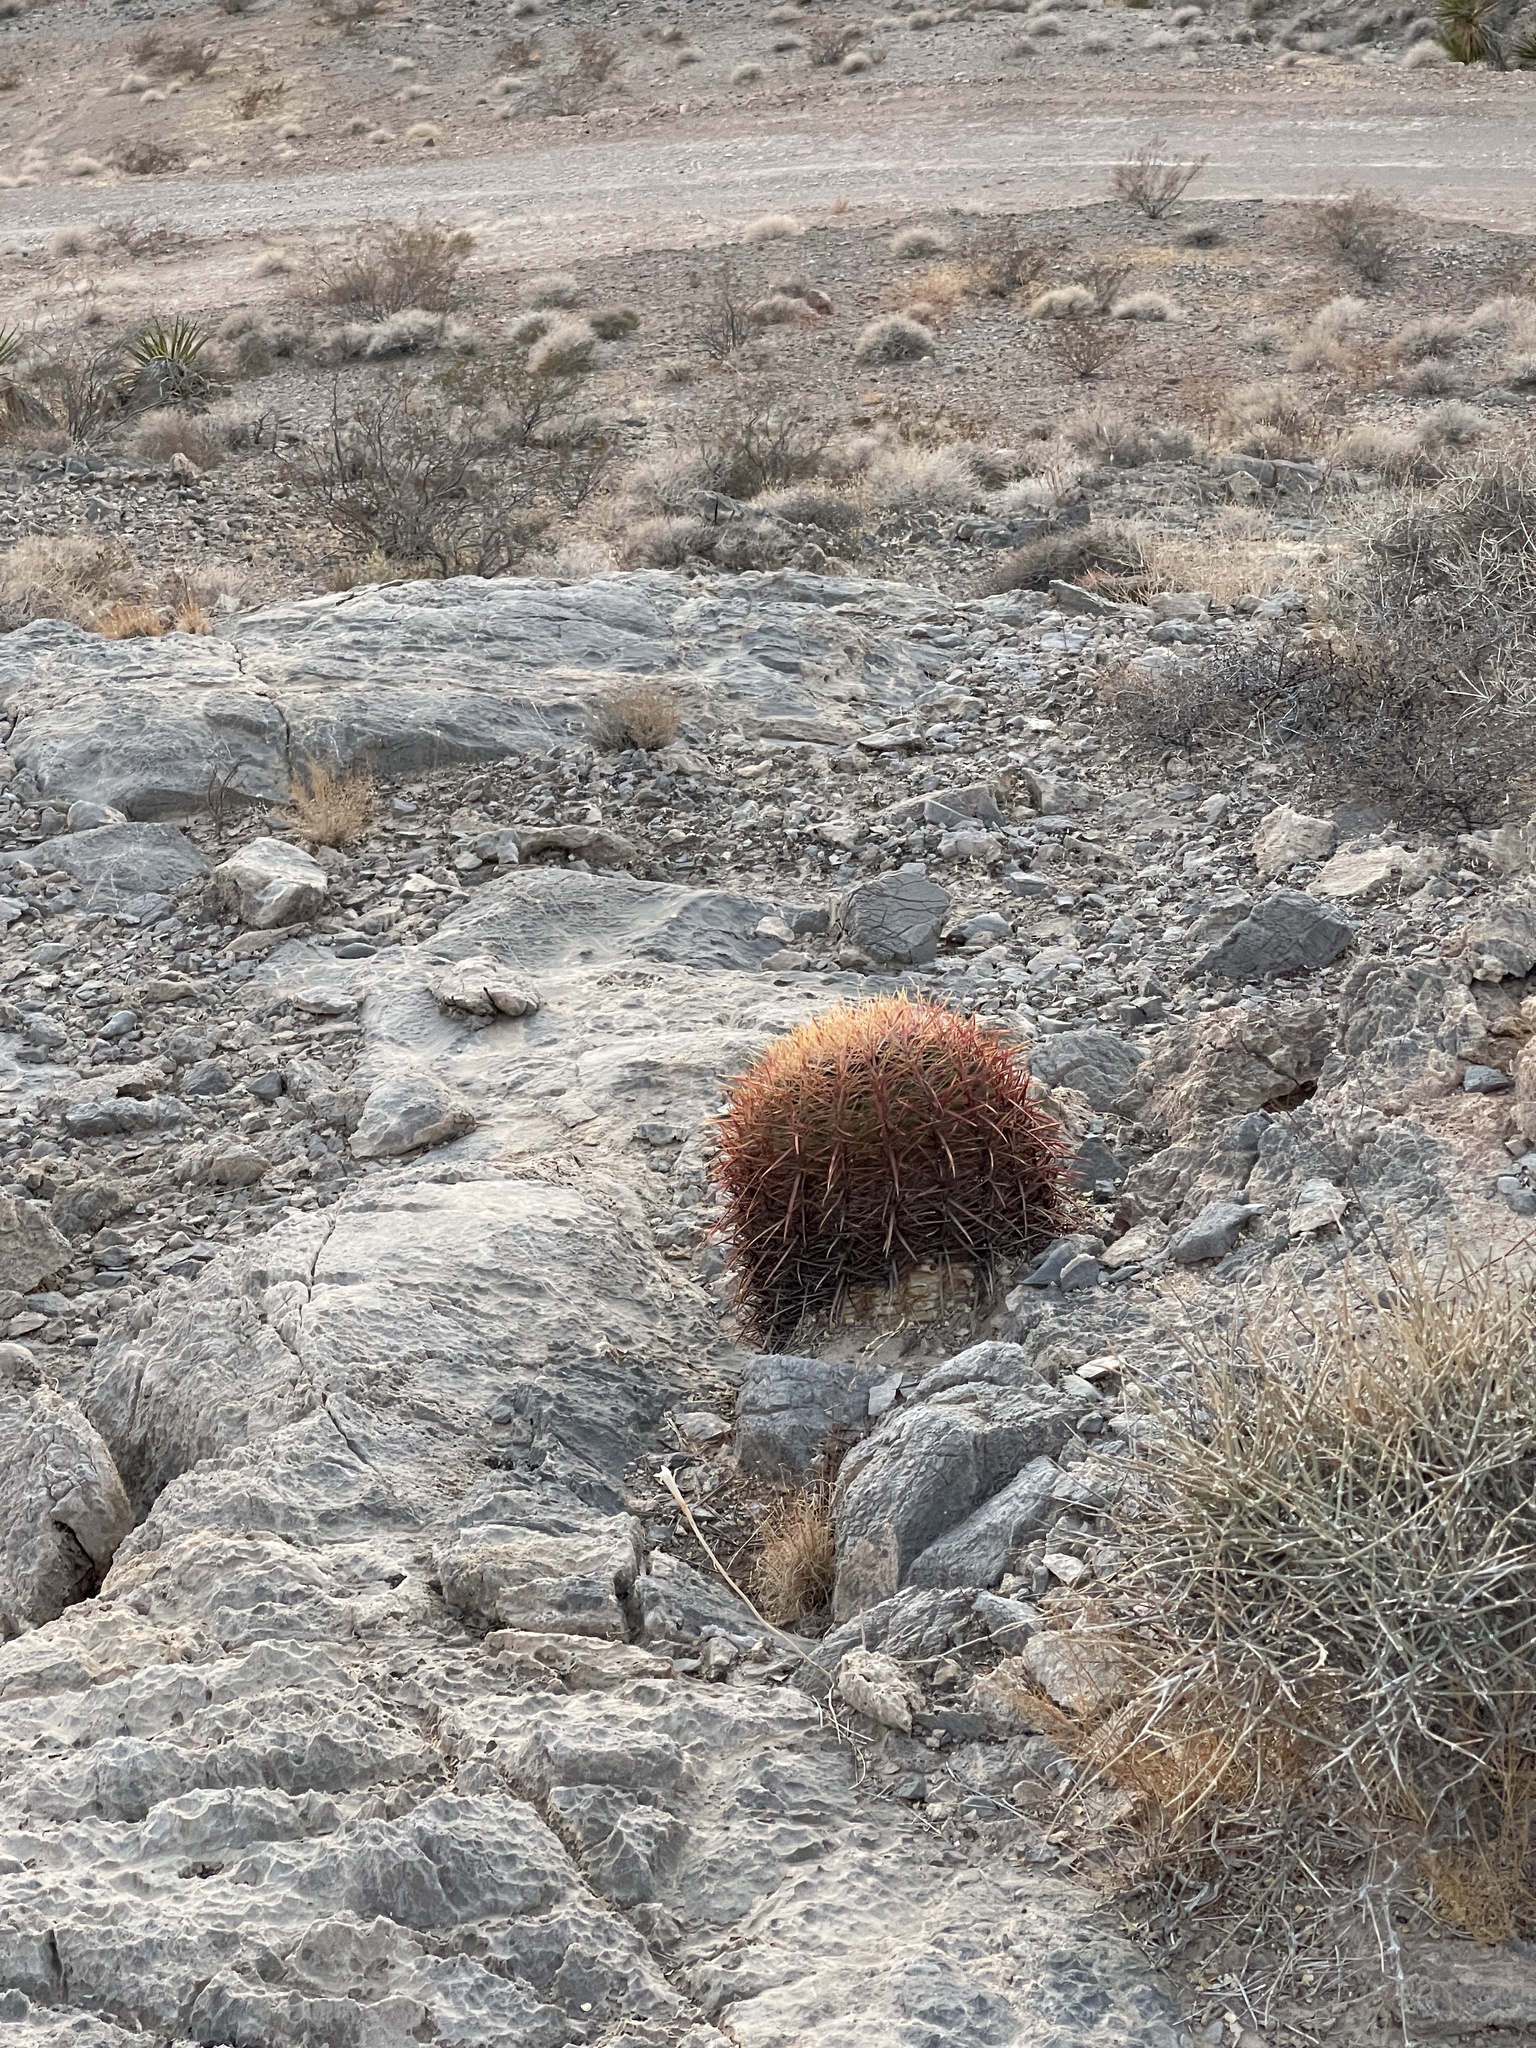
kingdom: Plantae
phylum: Tracheophyta
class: Magnoliopsida
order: Caryophyllales
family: Cactaceae
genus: Ferocactus
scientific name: Ferocactus cylindraceus
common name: California barrel cactus
